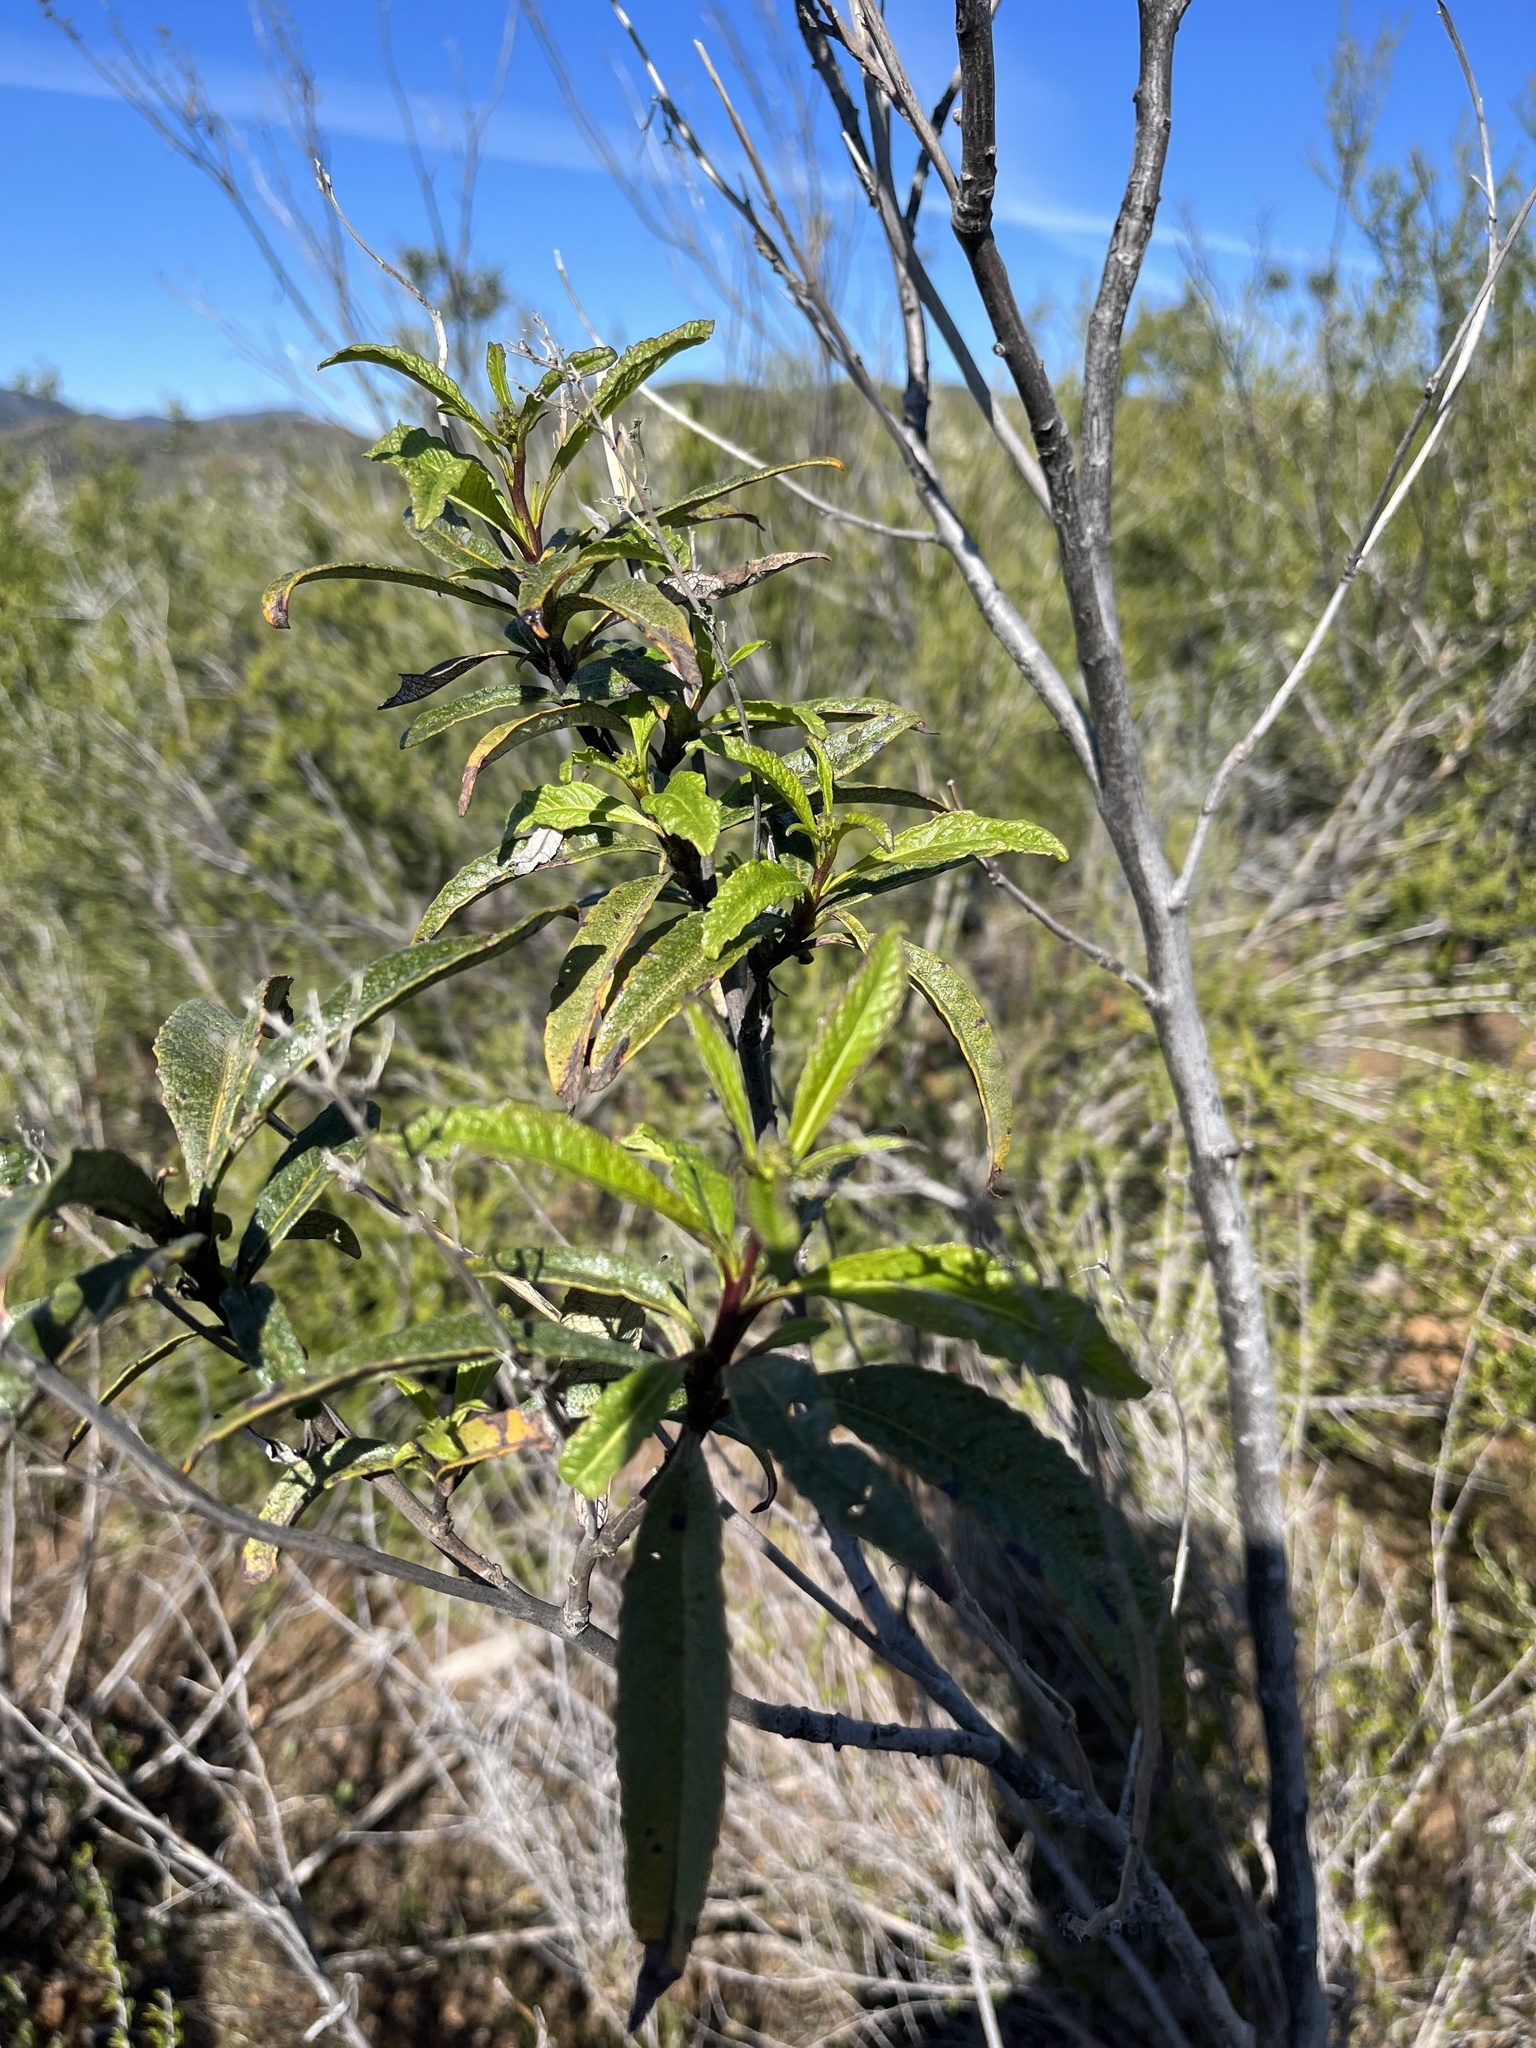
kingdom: Plantae
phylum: Tracheophyta
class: Magnoliopsida
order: Boraginales
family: Namaceae
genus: Eriodictyon
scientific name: Eriodictyon californicum
